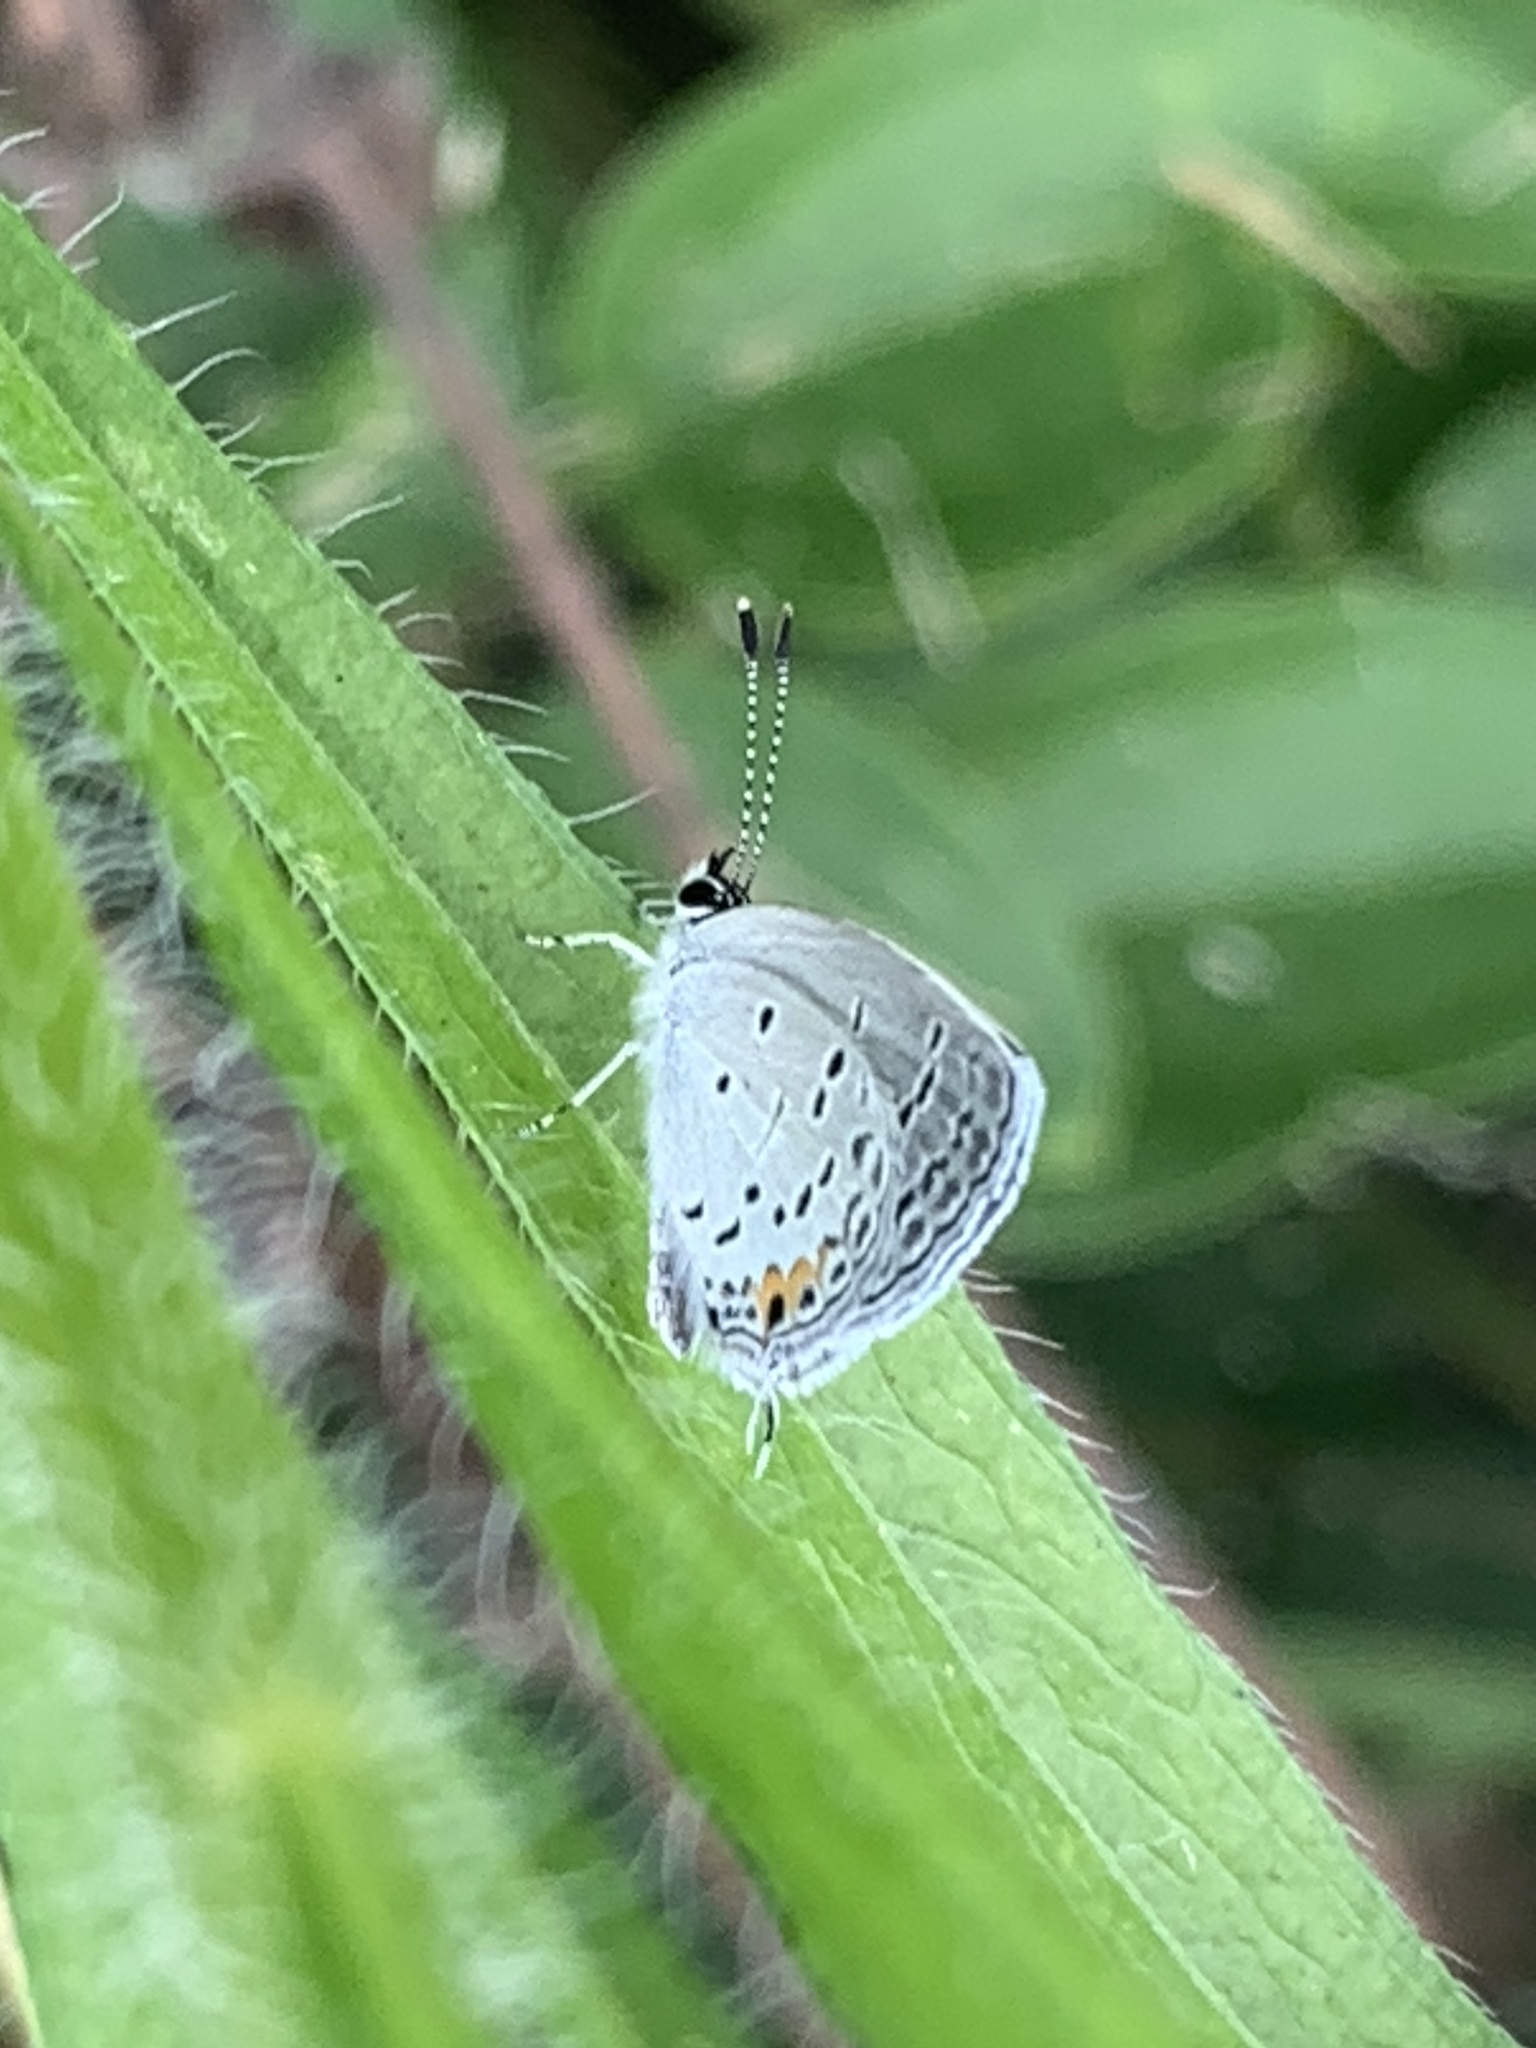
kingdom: Animalia
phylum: Arthropoda
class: Insecta
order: Lepidoptera
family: Lycaenidae
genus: Elkalyce
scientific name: Elkalyce comyntas
